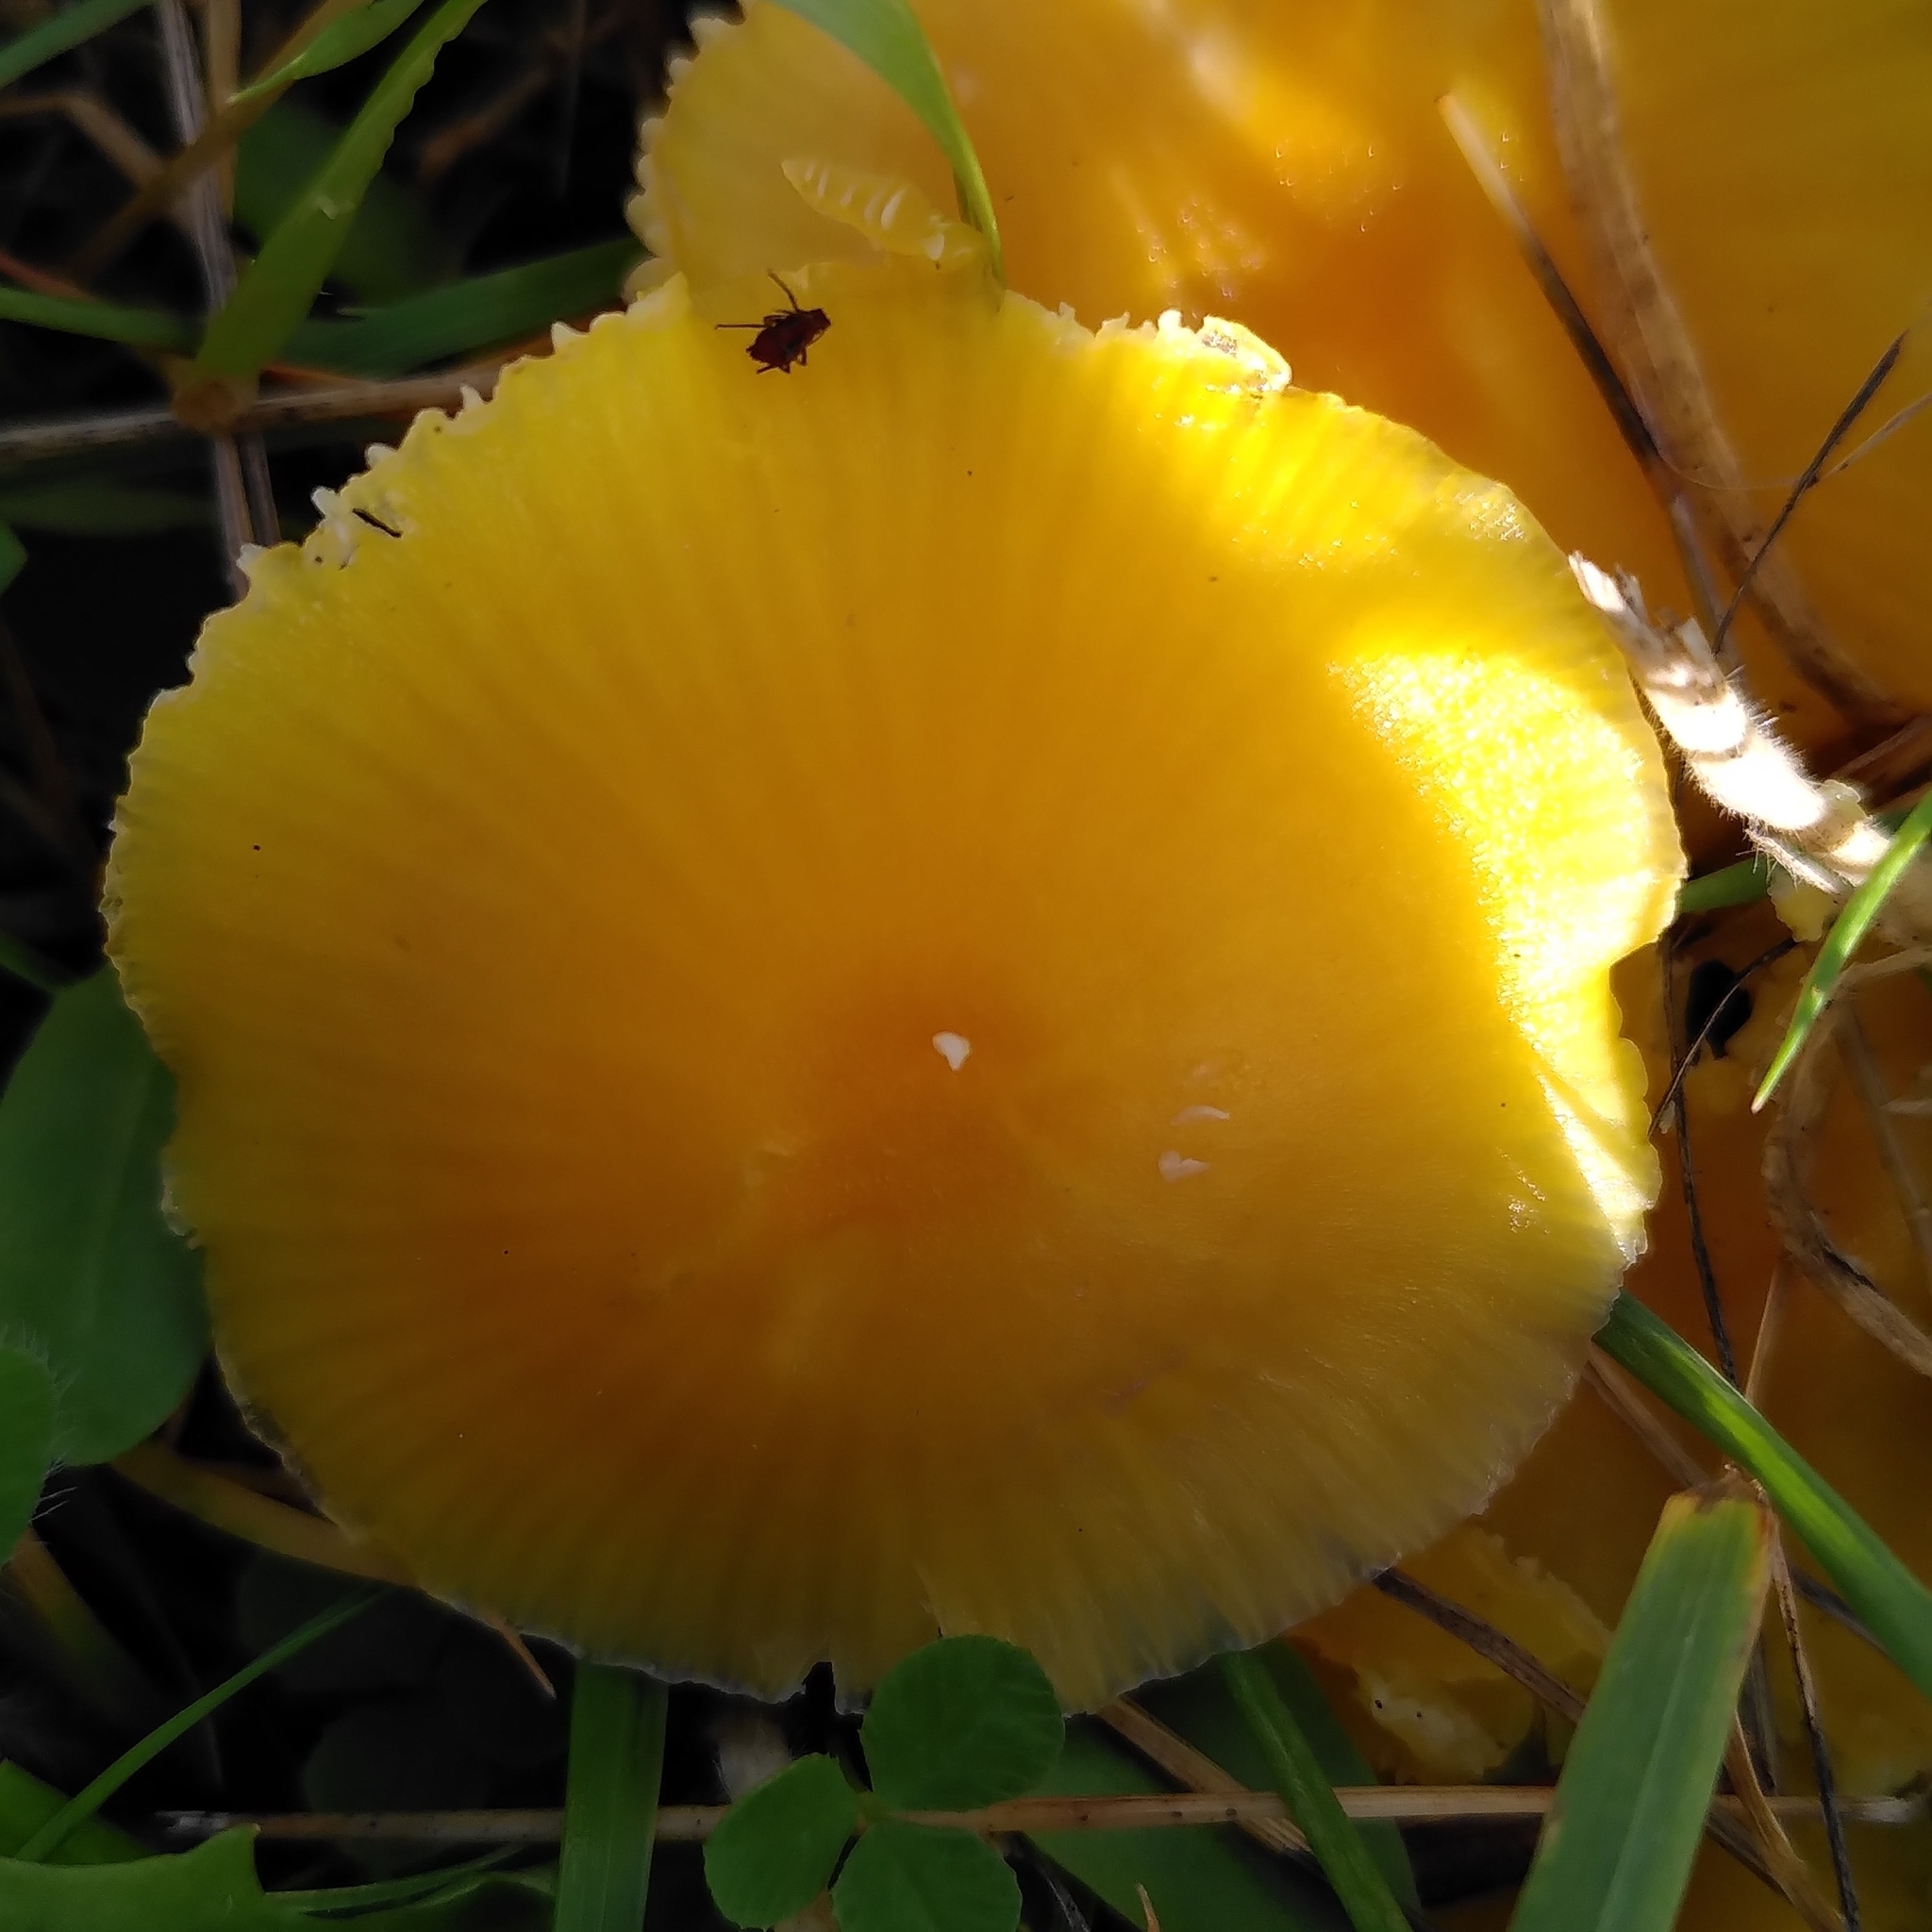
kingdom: Fungi
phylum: Basidiomycota
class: Agaricomycetes
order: Agaricales
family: Hygrophoraceae
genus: Hygrocybe
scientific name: Hygrocybe ceracea
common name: Butter waxcap
